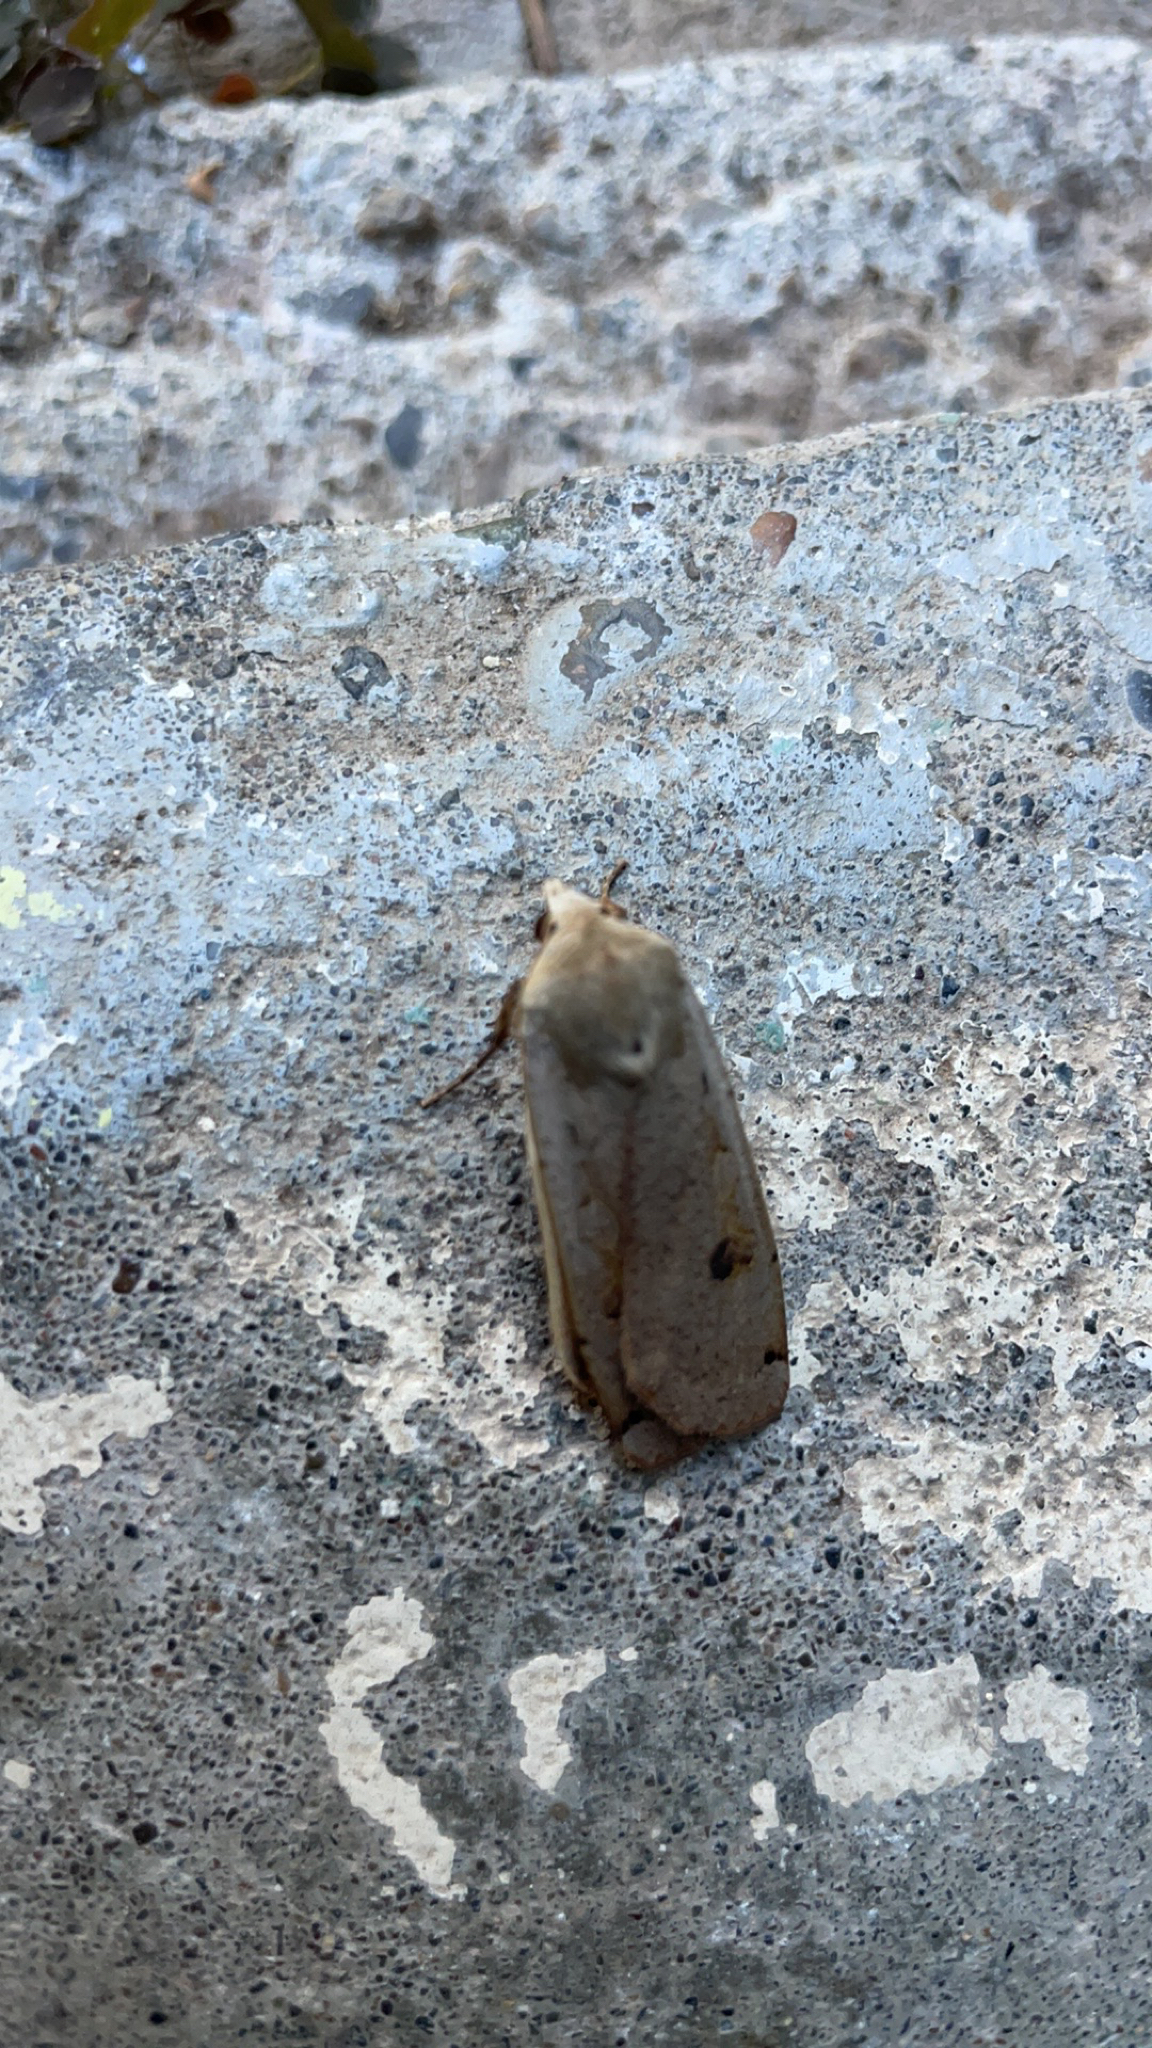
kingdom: Animalia
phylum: Arthropoda
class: Insecta
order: Lepidoptera
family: Noctuidae
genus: Noctua
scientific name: Noctua pronuba
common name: Large yellow underwing
